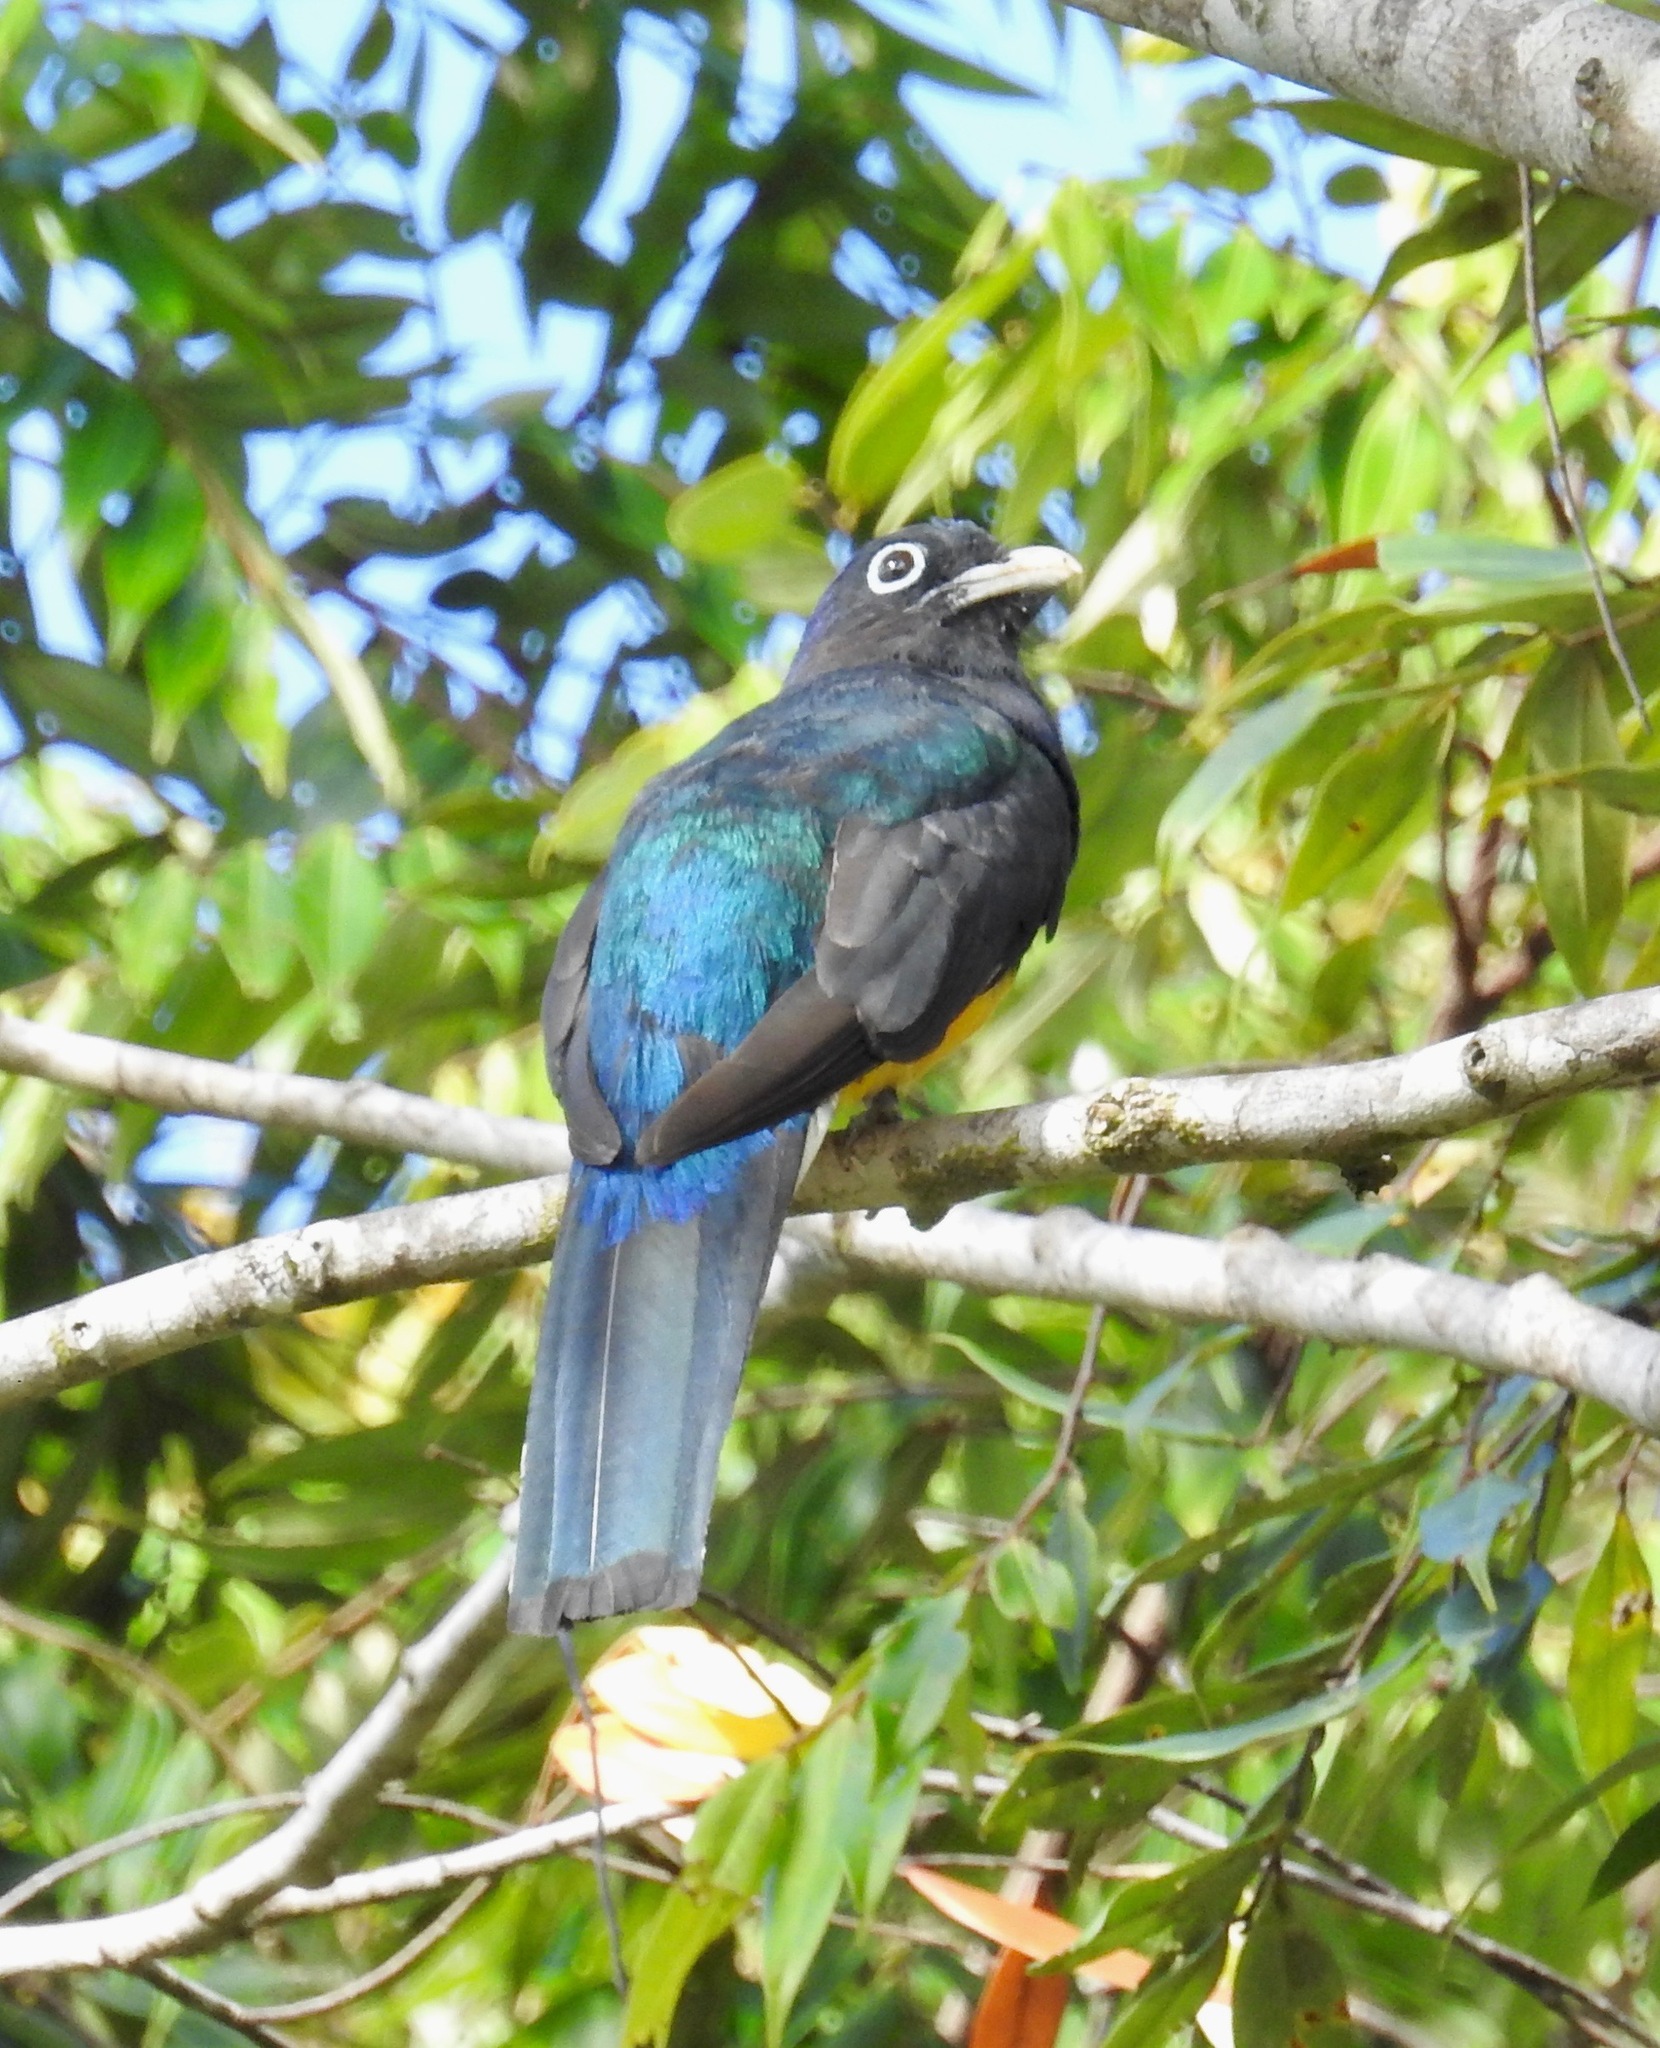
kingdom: Animalia
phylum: Chordata
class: Aves
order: Trogoniformes
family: Trogonidae
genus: Trogon
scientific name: Trogon viridis
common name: Green-backed trogon
